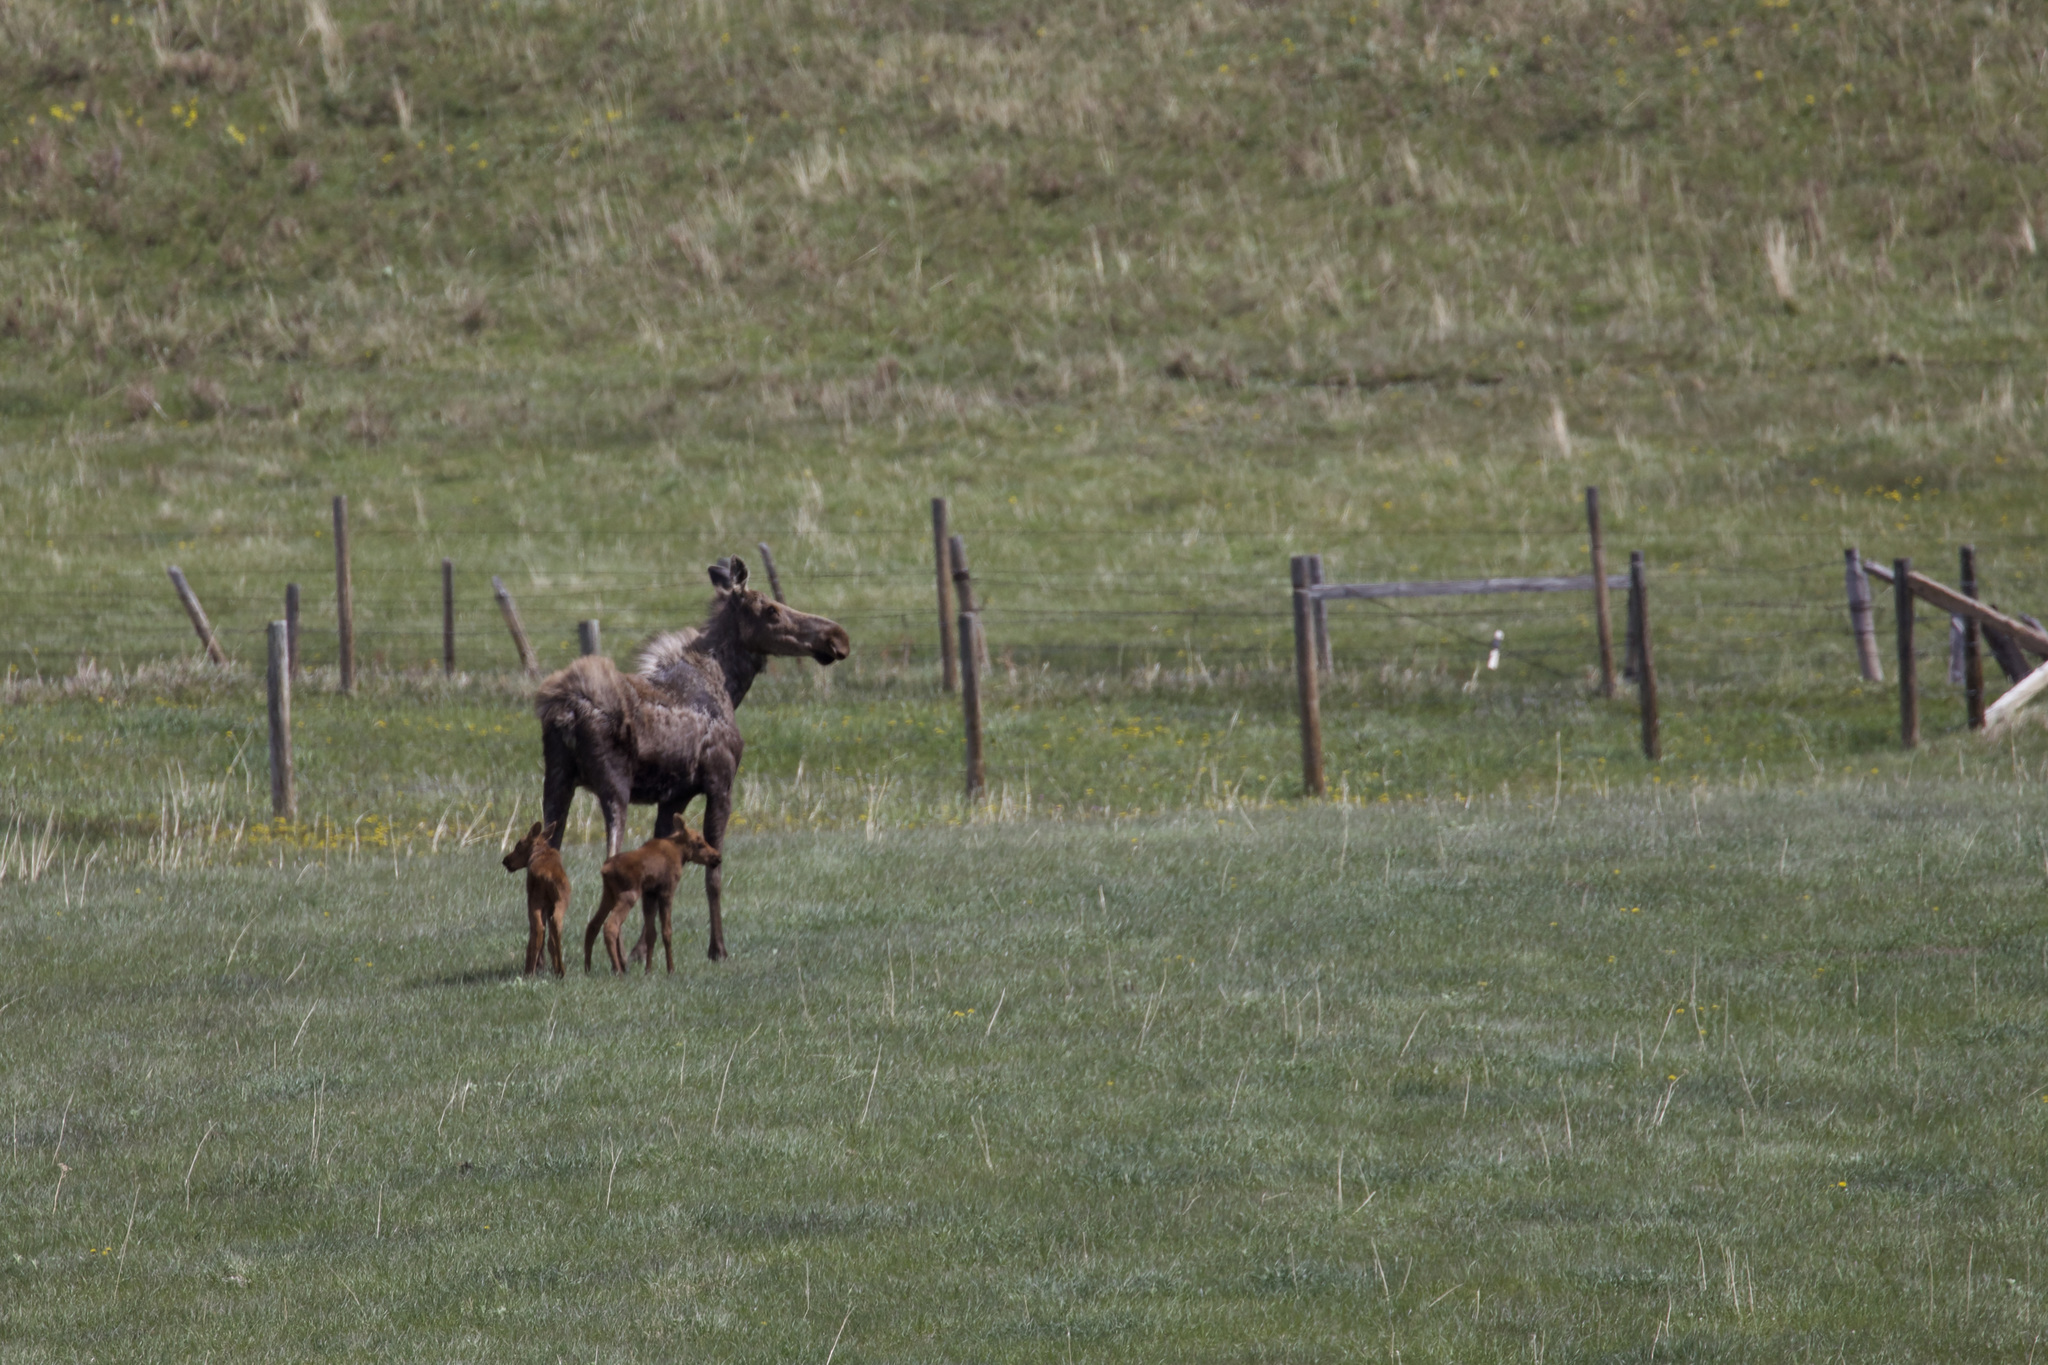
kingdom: Animalia
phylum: Chordata
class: Mammalia
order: Artiodactyla
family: Cervidae
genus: Alces
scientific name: Alces alces
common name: Moose
